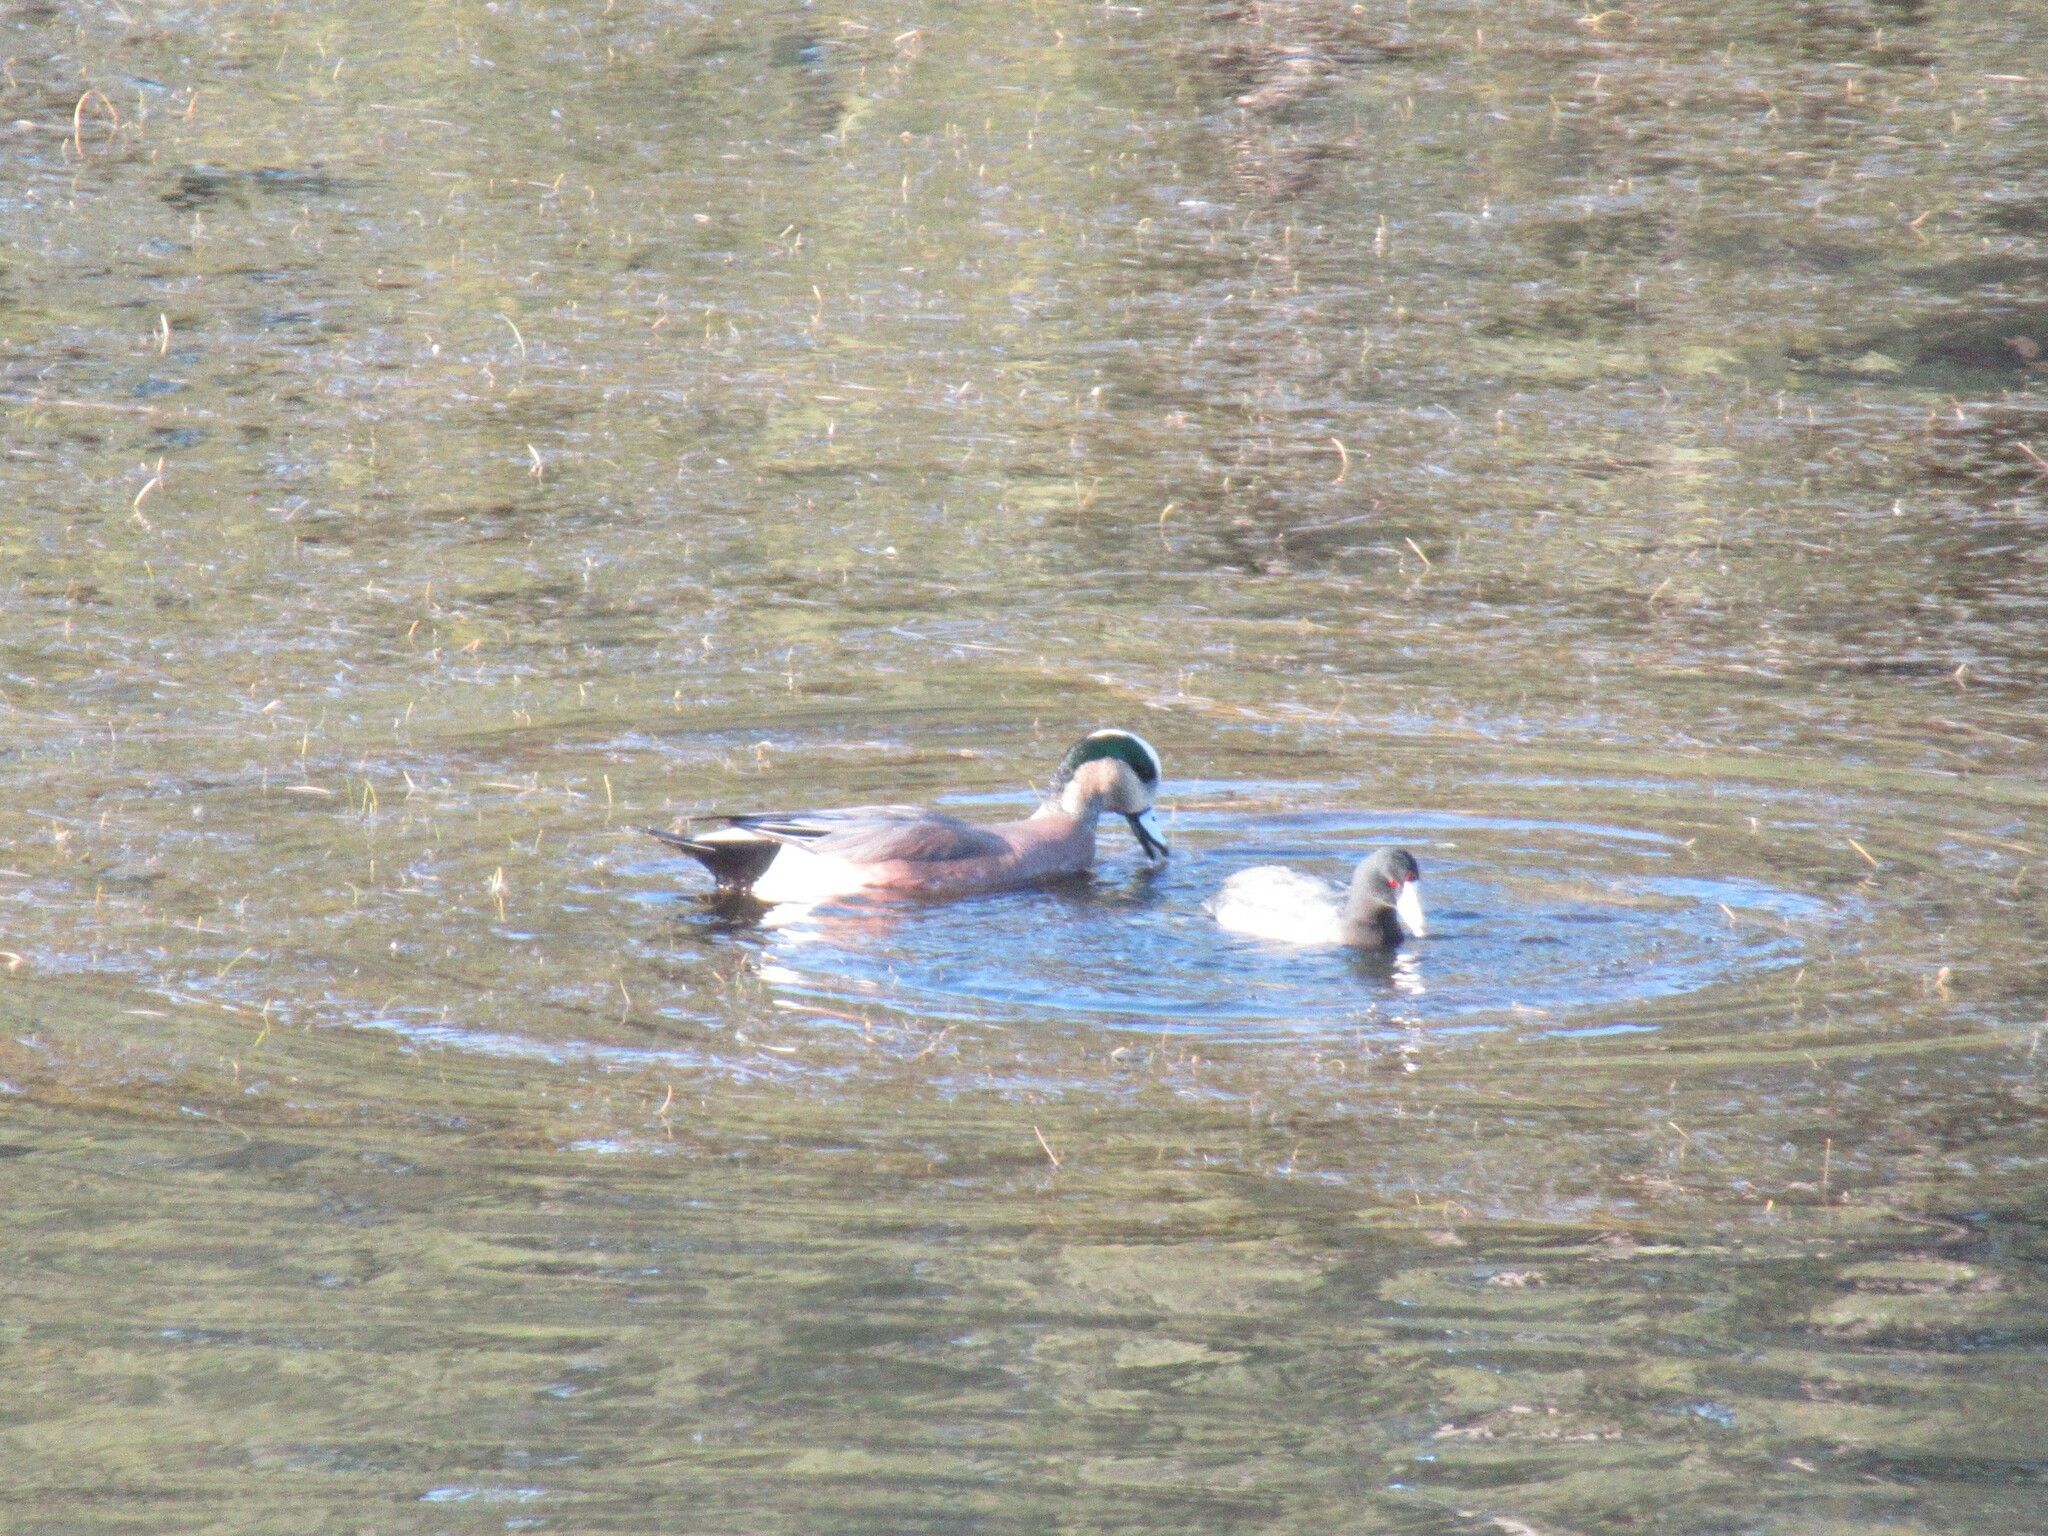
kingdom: Animalia
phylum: Chordata
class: Aves
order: Anseriformes
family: Anatidae
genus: Mareca
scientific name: Mareca americana
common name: American wigeon
